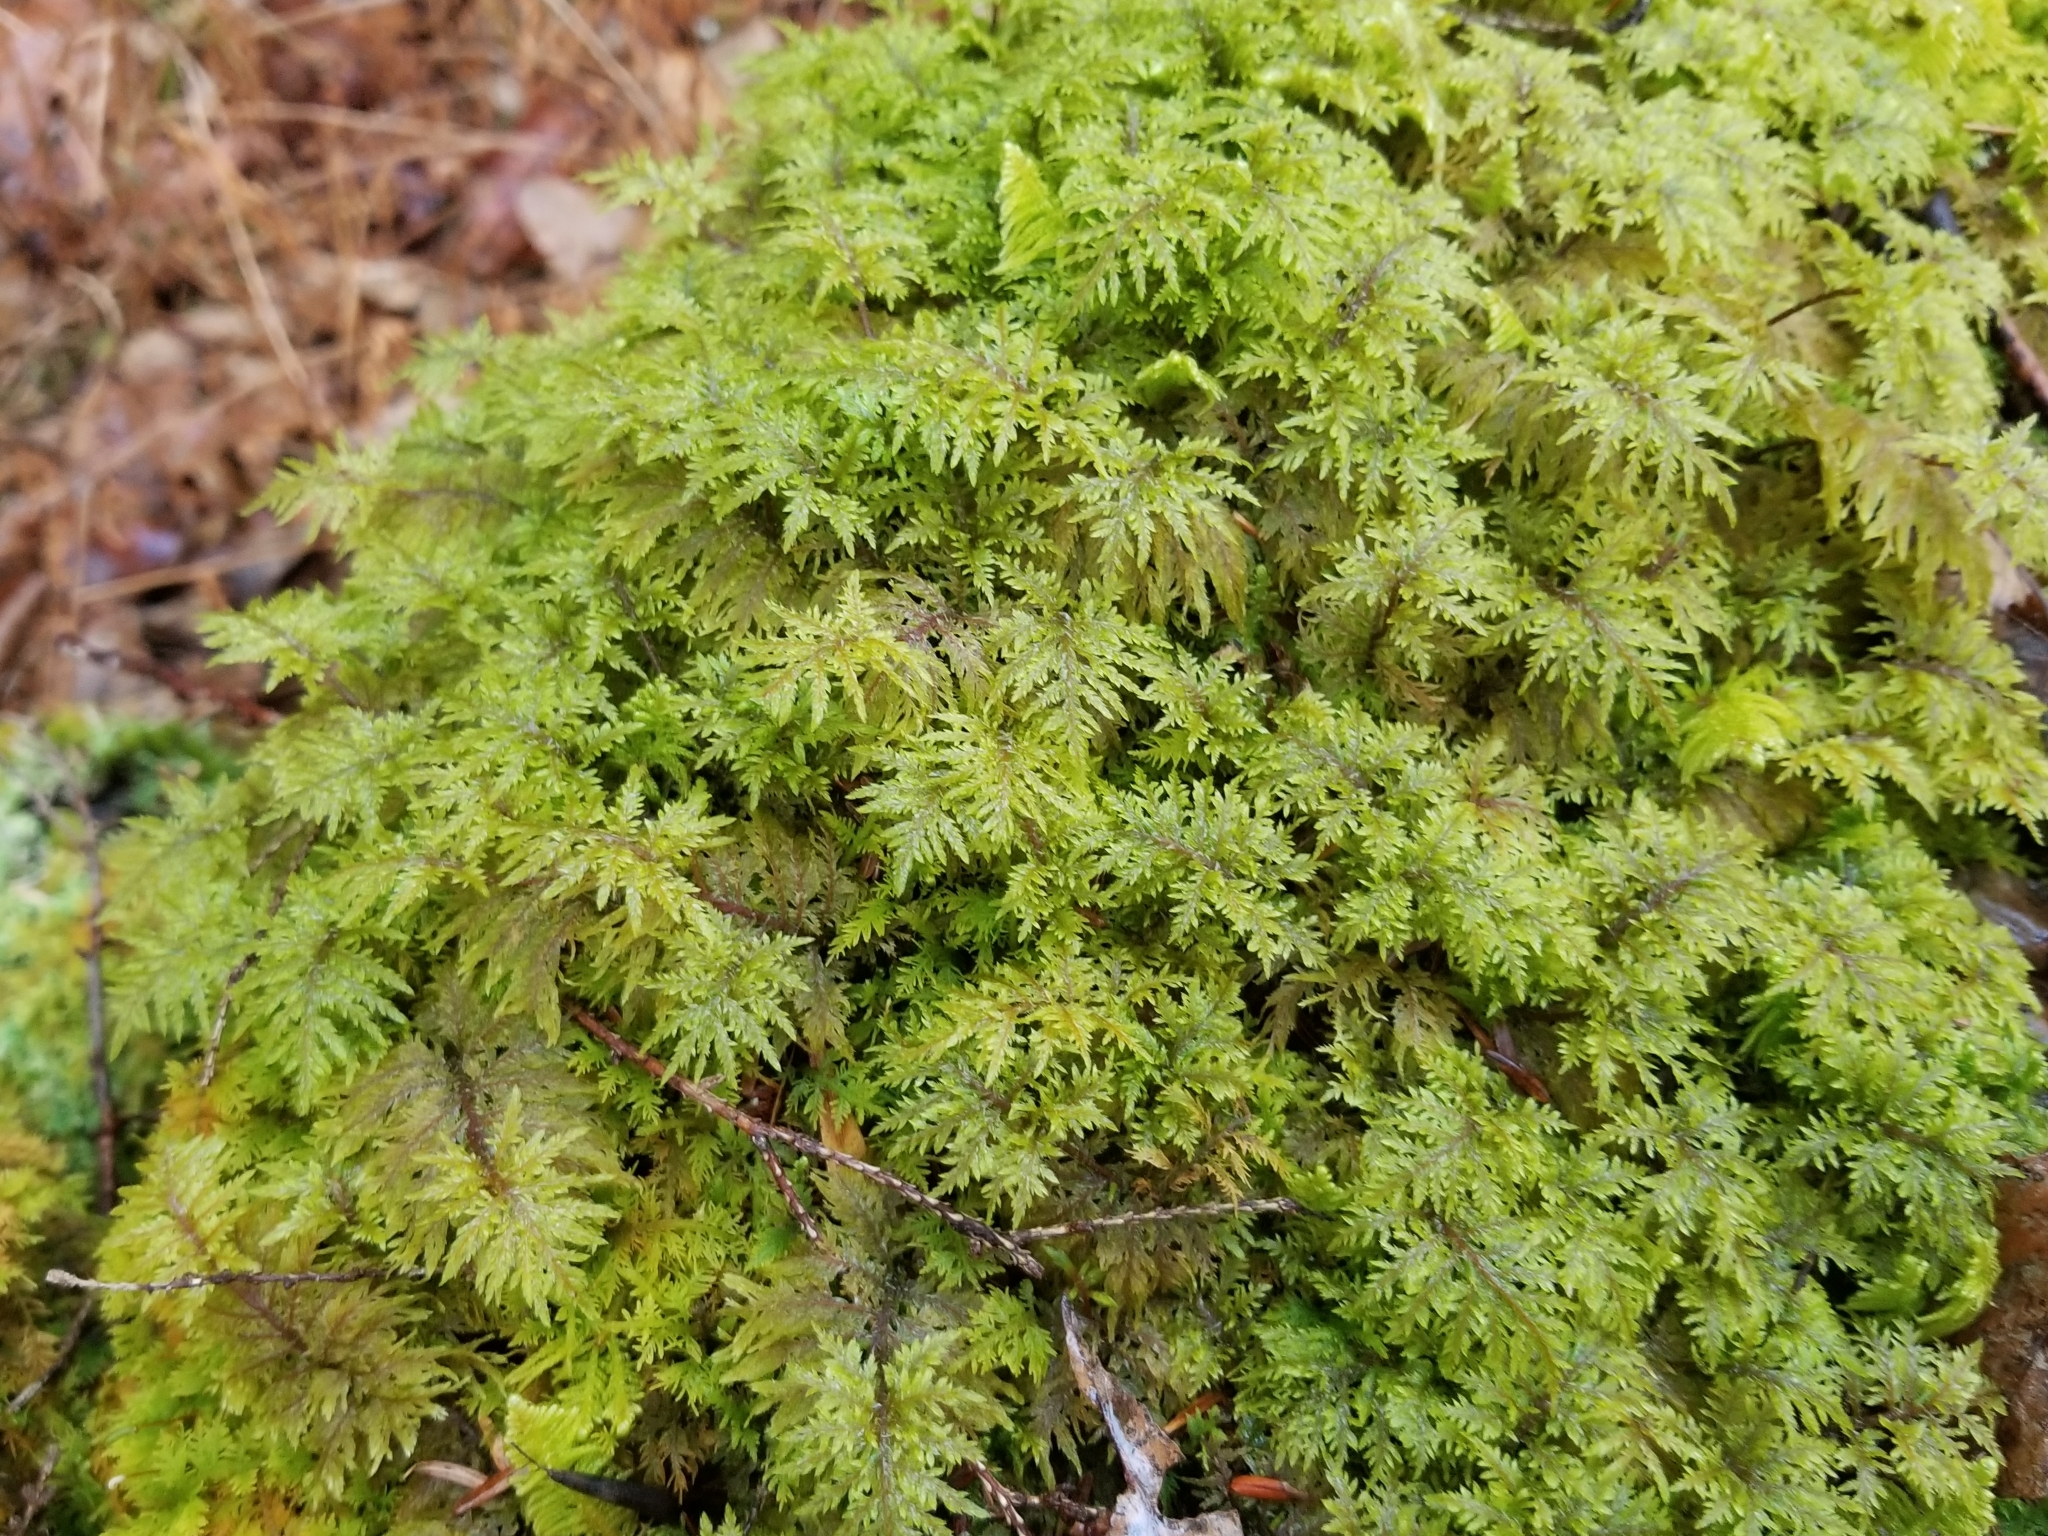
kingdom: Plantae
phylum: Bryophyta
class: Bryopsida
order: Hypnales
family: Hylocomiaceae
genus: Hylocomium
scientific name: Hylocomium splendens
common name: Stairstep moss
